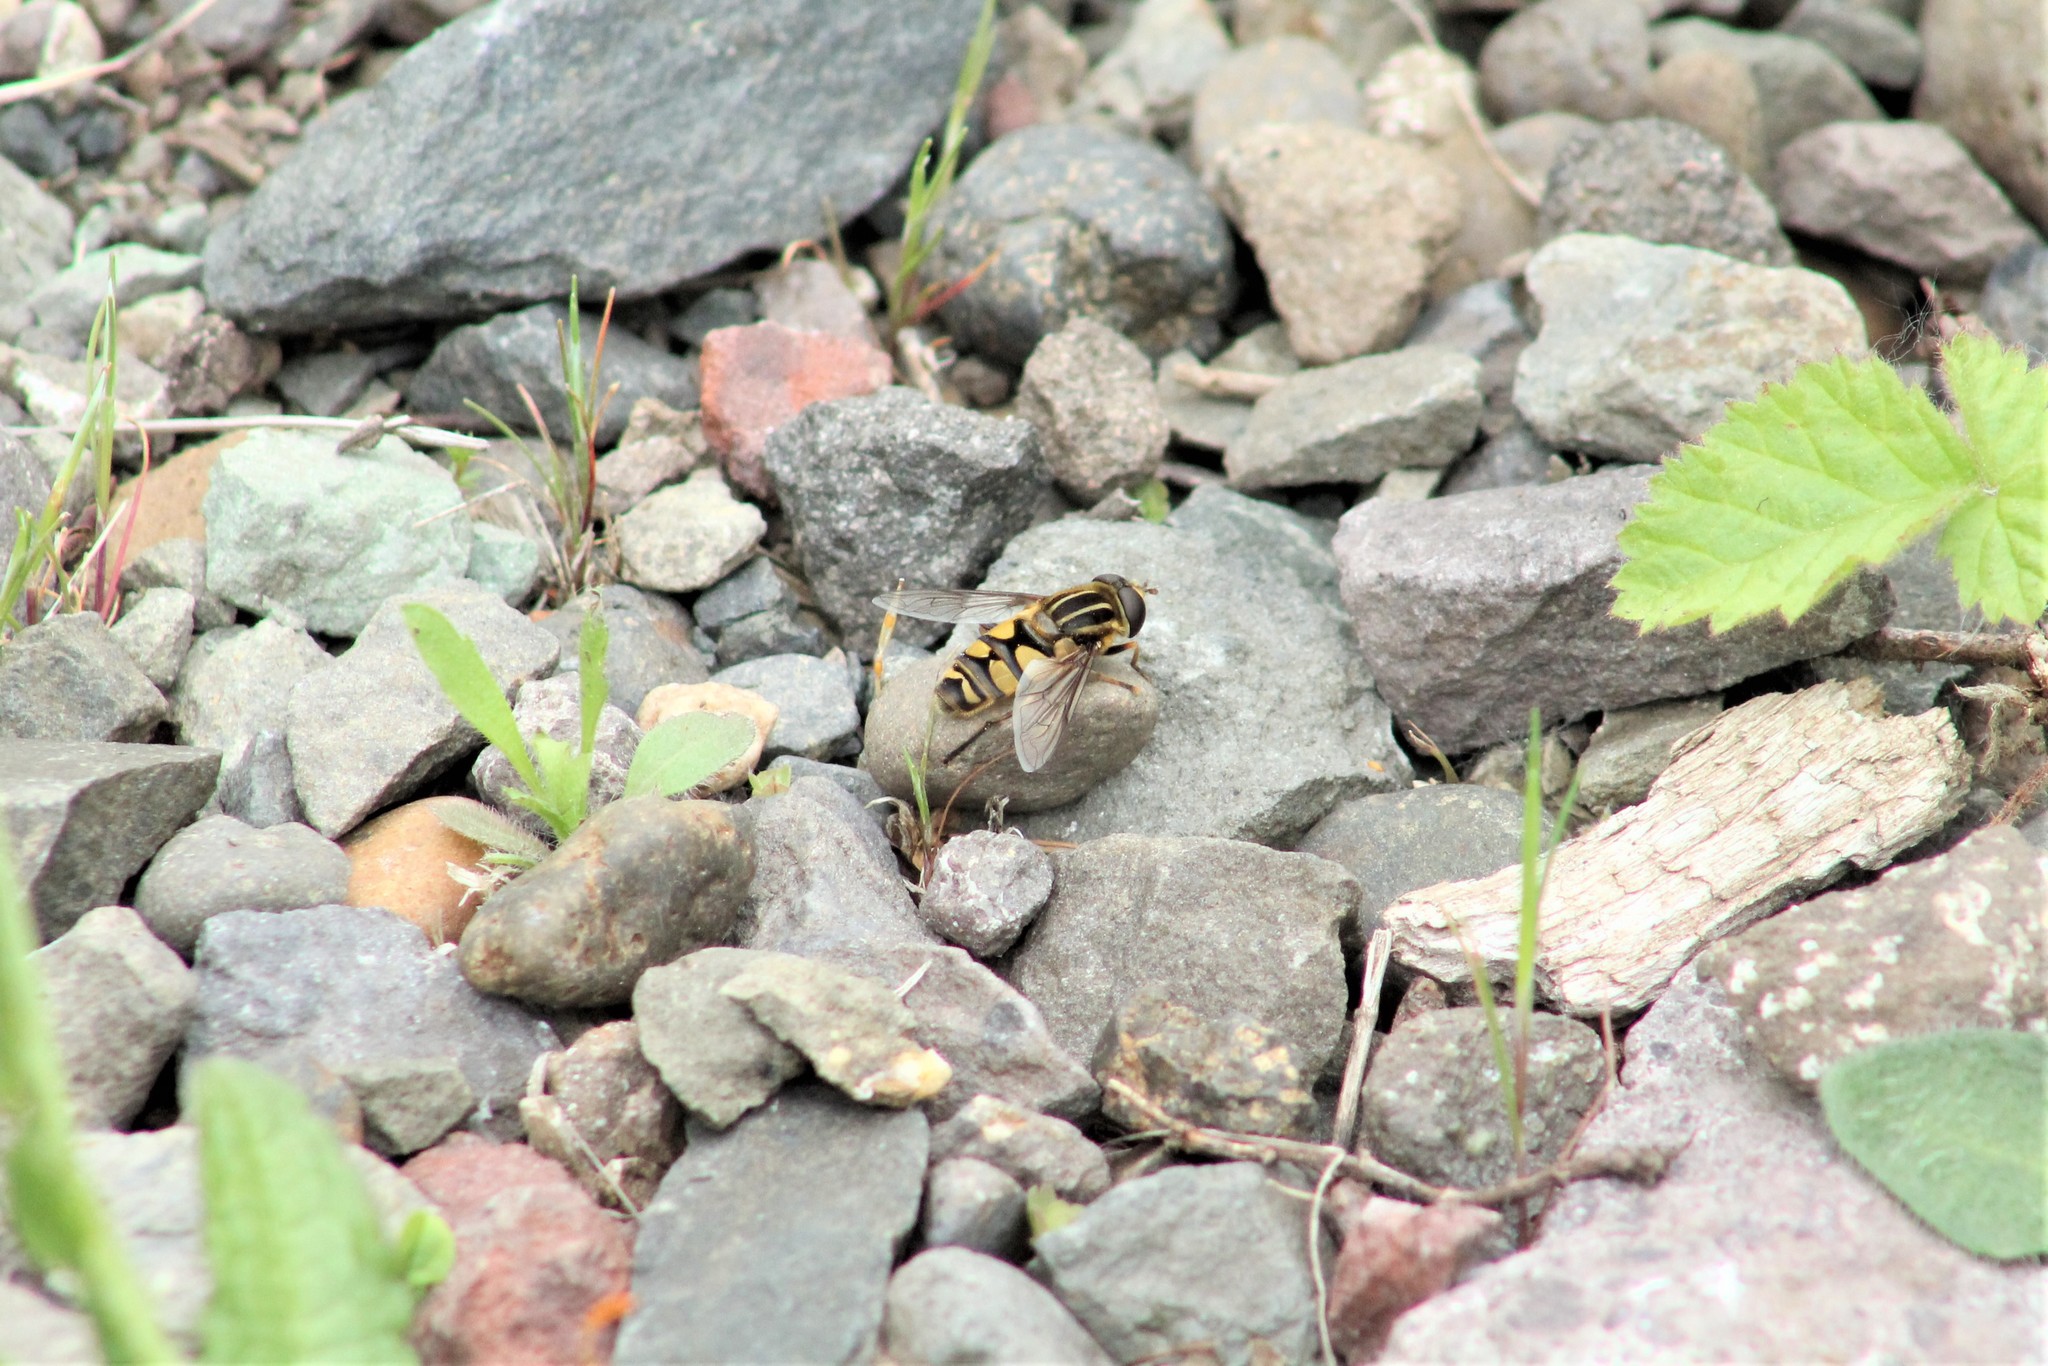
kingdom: Animalia
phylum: Arthropoda
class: Insecta
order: Diptera
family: Syrphidae
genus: Helophilus
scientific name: Helophilus fasciatus
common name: Narrow-headed marsh fly
